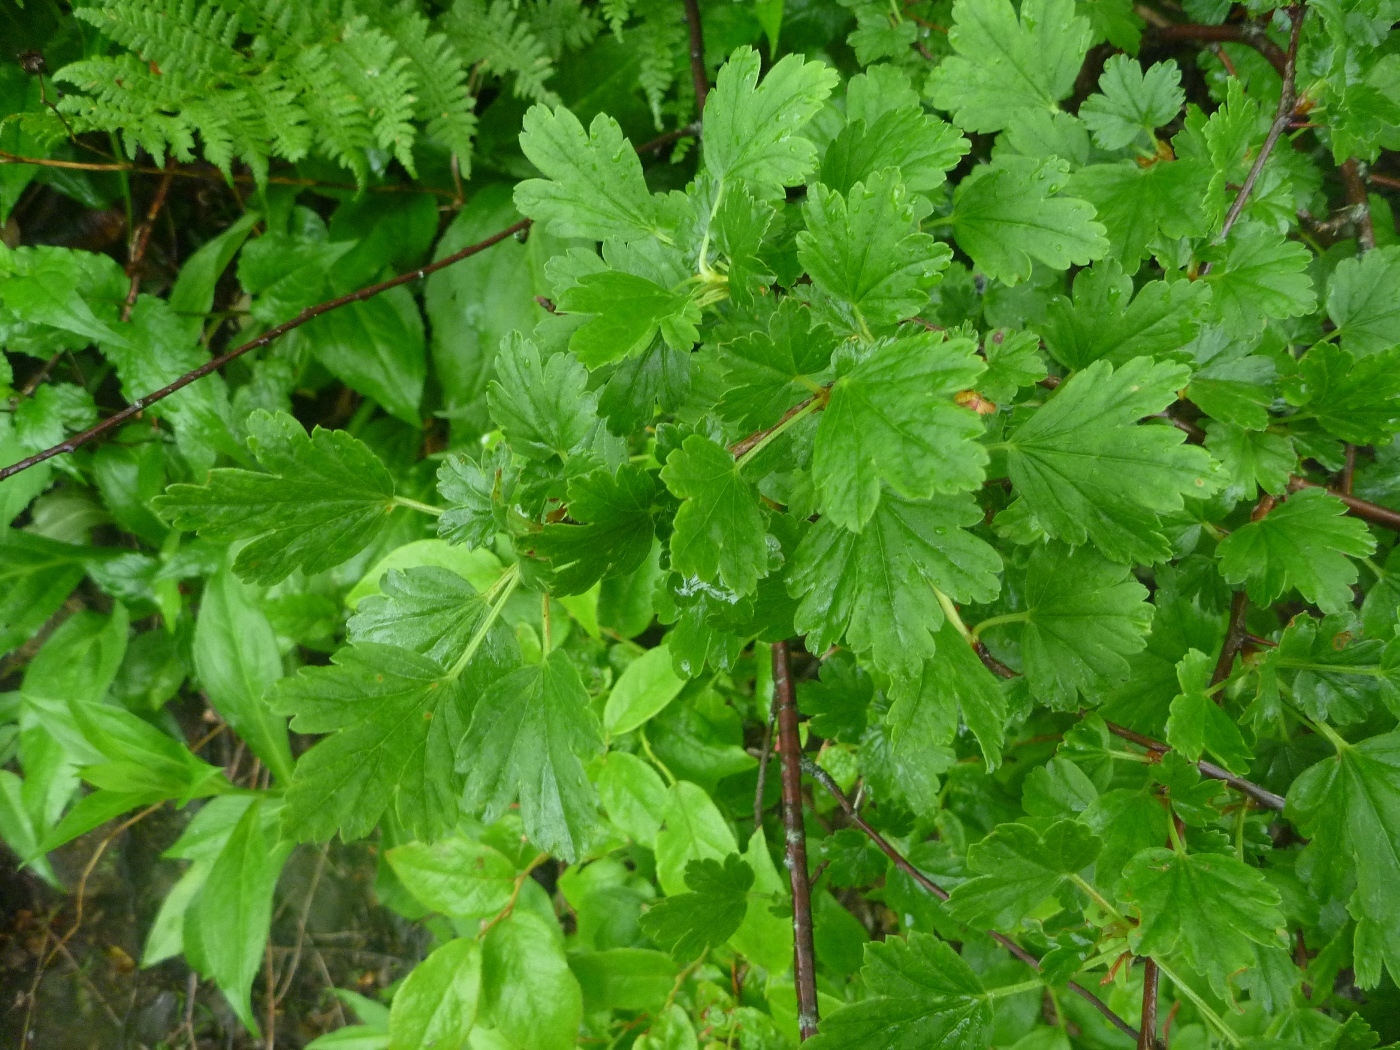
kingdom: Plantae
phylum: Tracheophyta
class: Magnoliopsida
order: Saxifragales
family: Grossulariaceae
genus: Ribes
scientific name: Ribes rotundifolium
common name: Appalachian gooseberry
